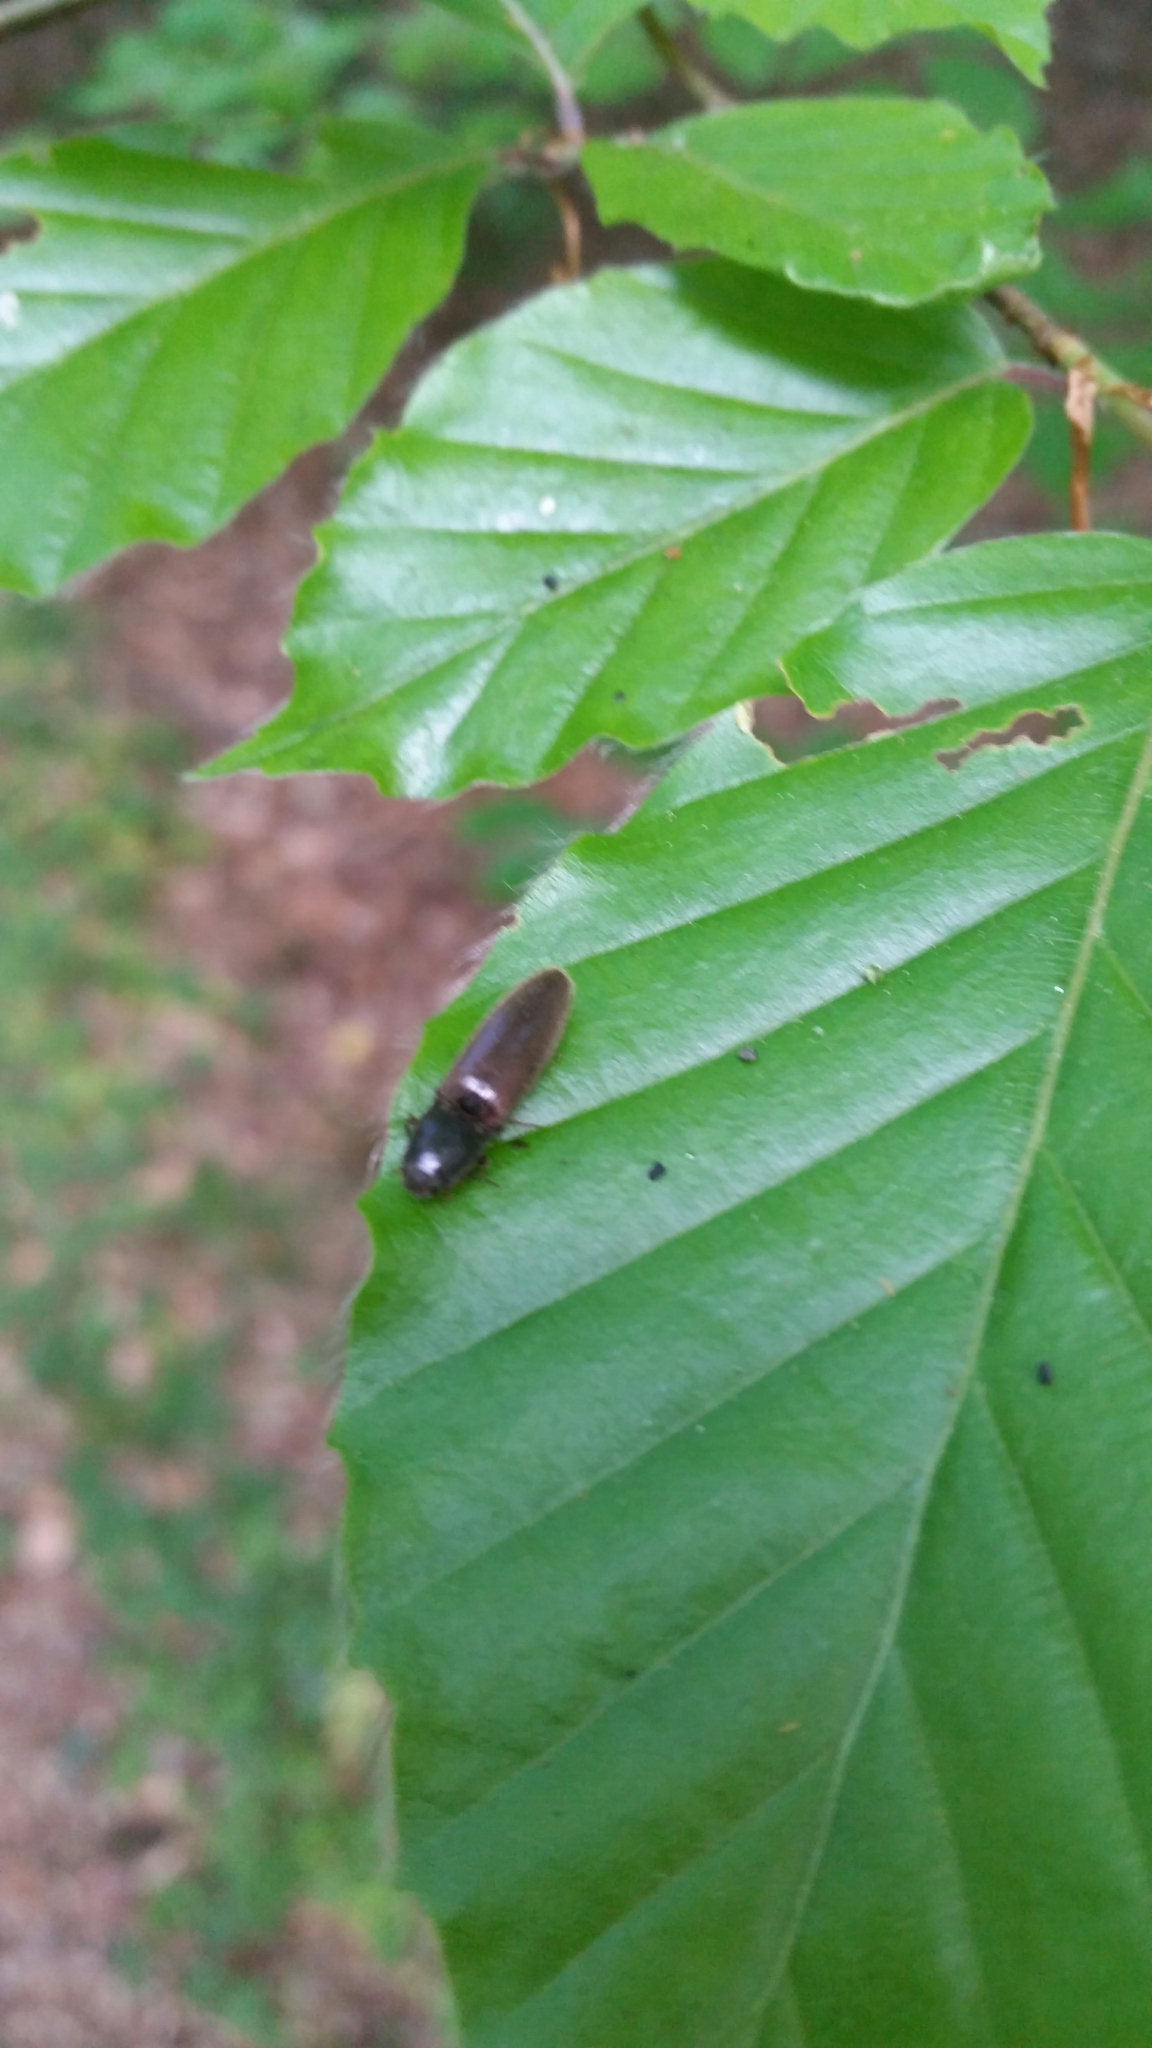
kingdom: Animalia
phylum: Arthropoda
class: Insecta
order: Coleoptera
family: Elateridae
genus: Athous
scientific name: Athous haemorrhoidalis
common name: Red-brown click beetle
